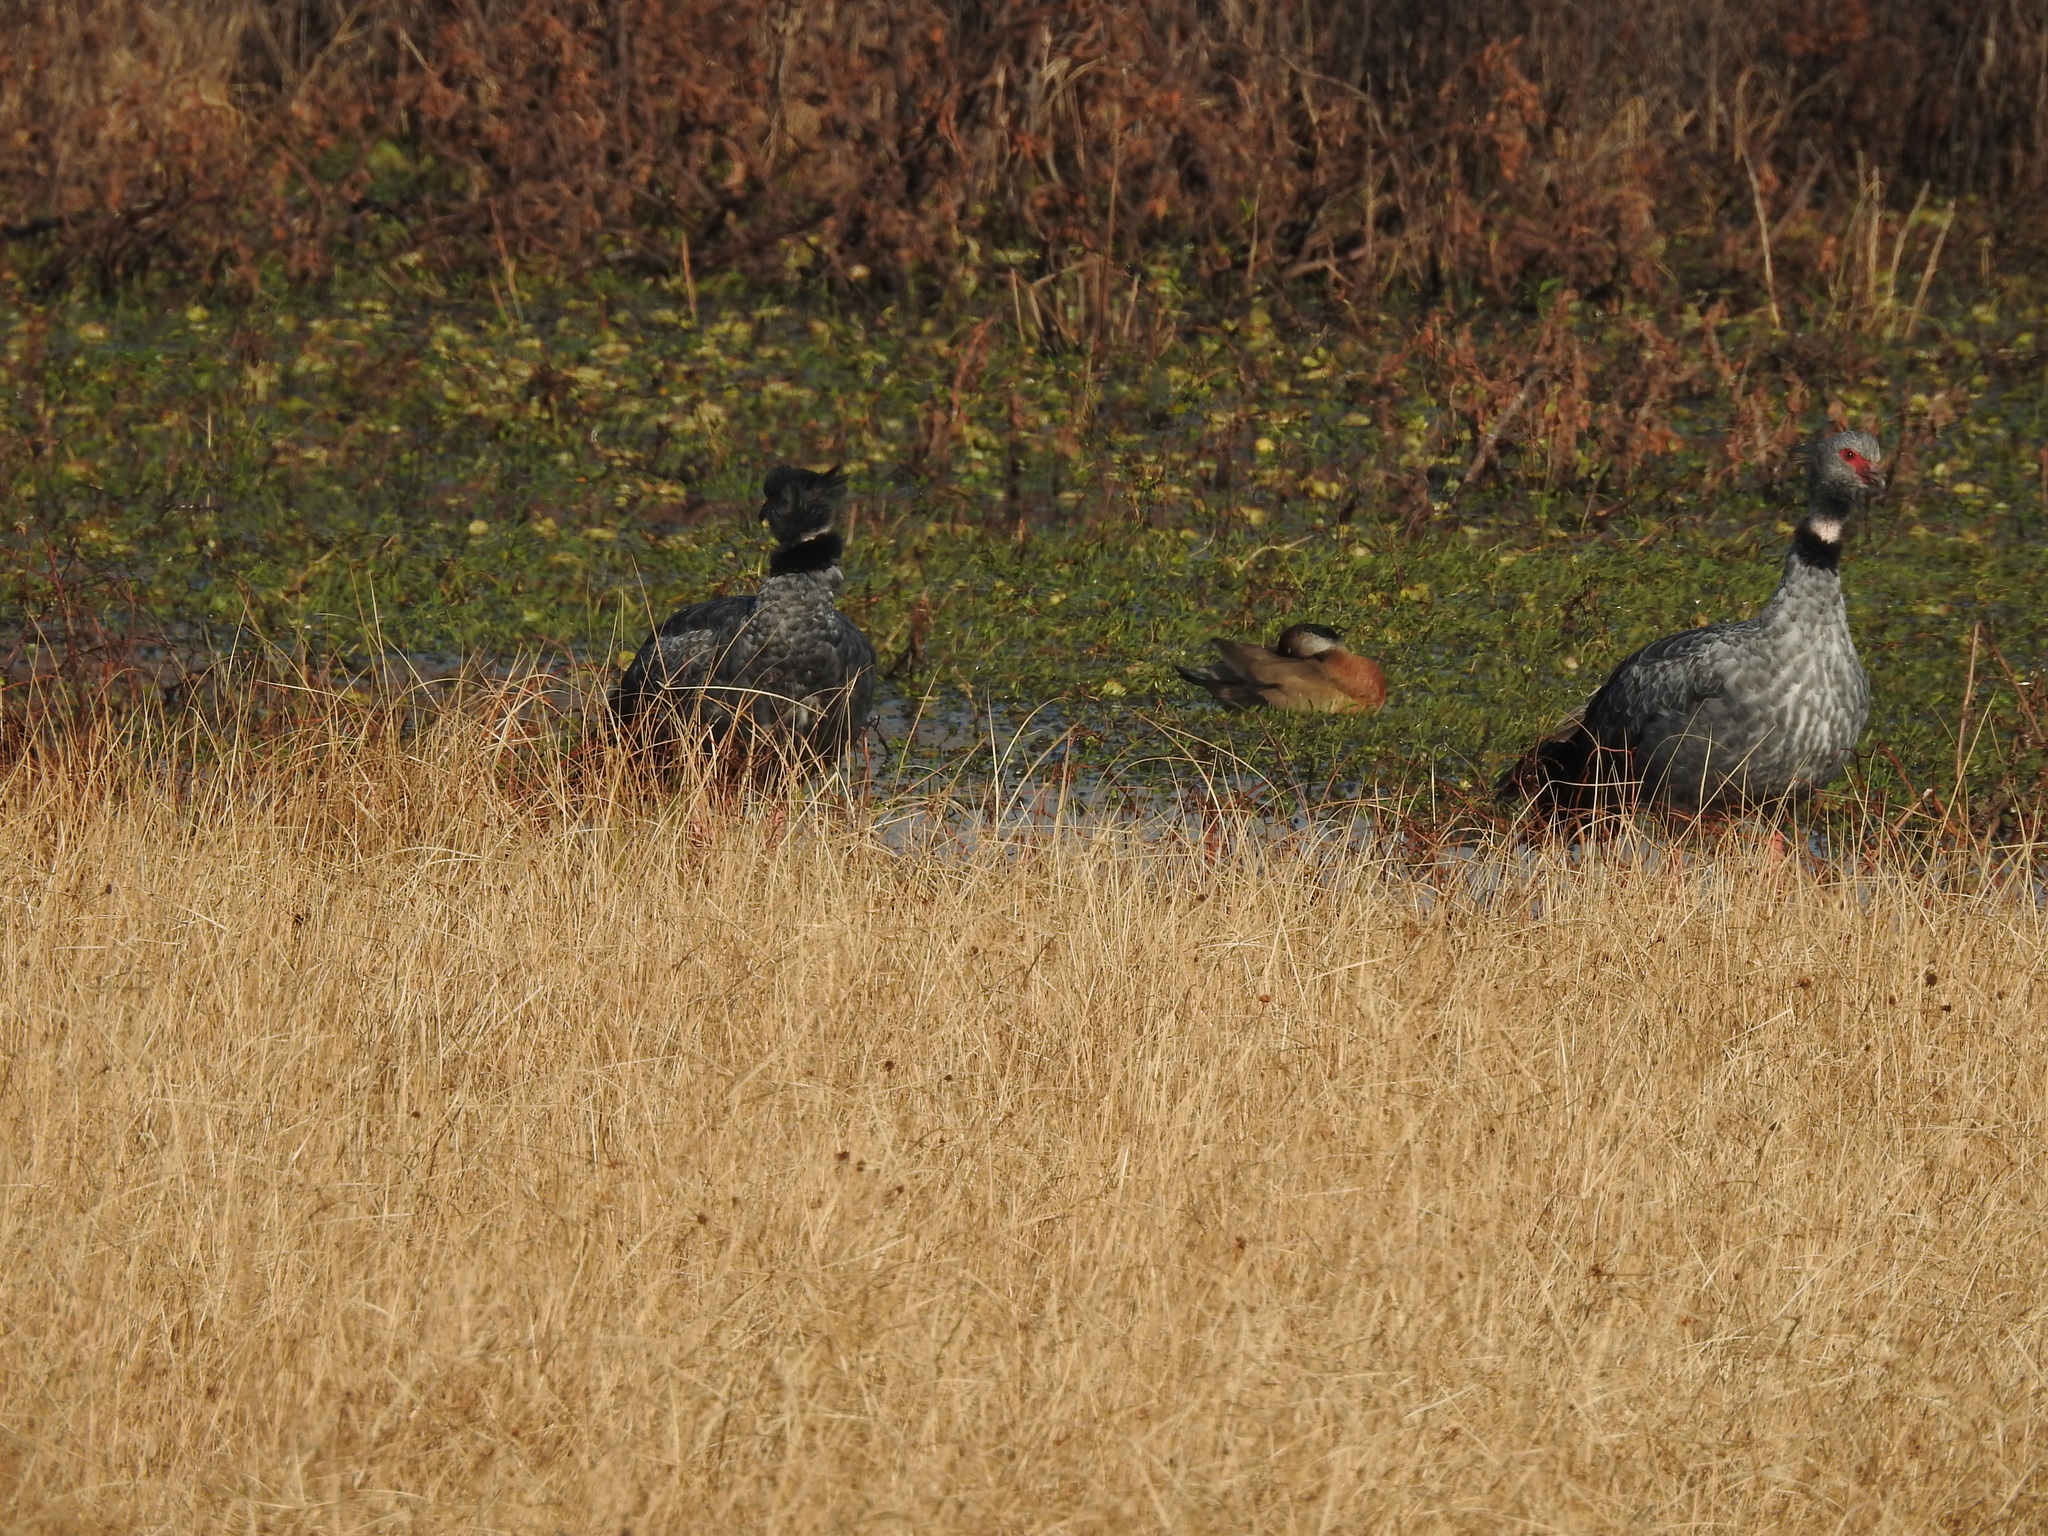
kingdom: Animalia
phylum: Chordata
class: Aves
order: Anseriformes
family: Anhimidae
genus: Chauna
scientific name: Chauna torquata
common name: Southern screamer
